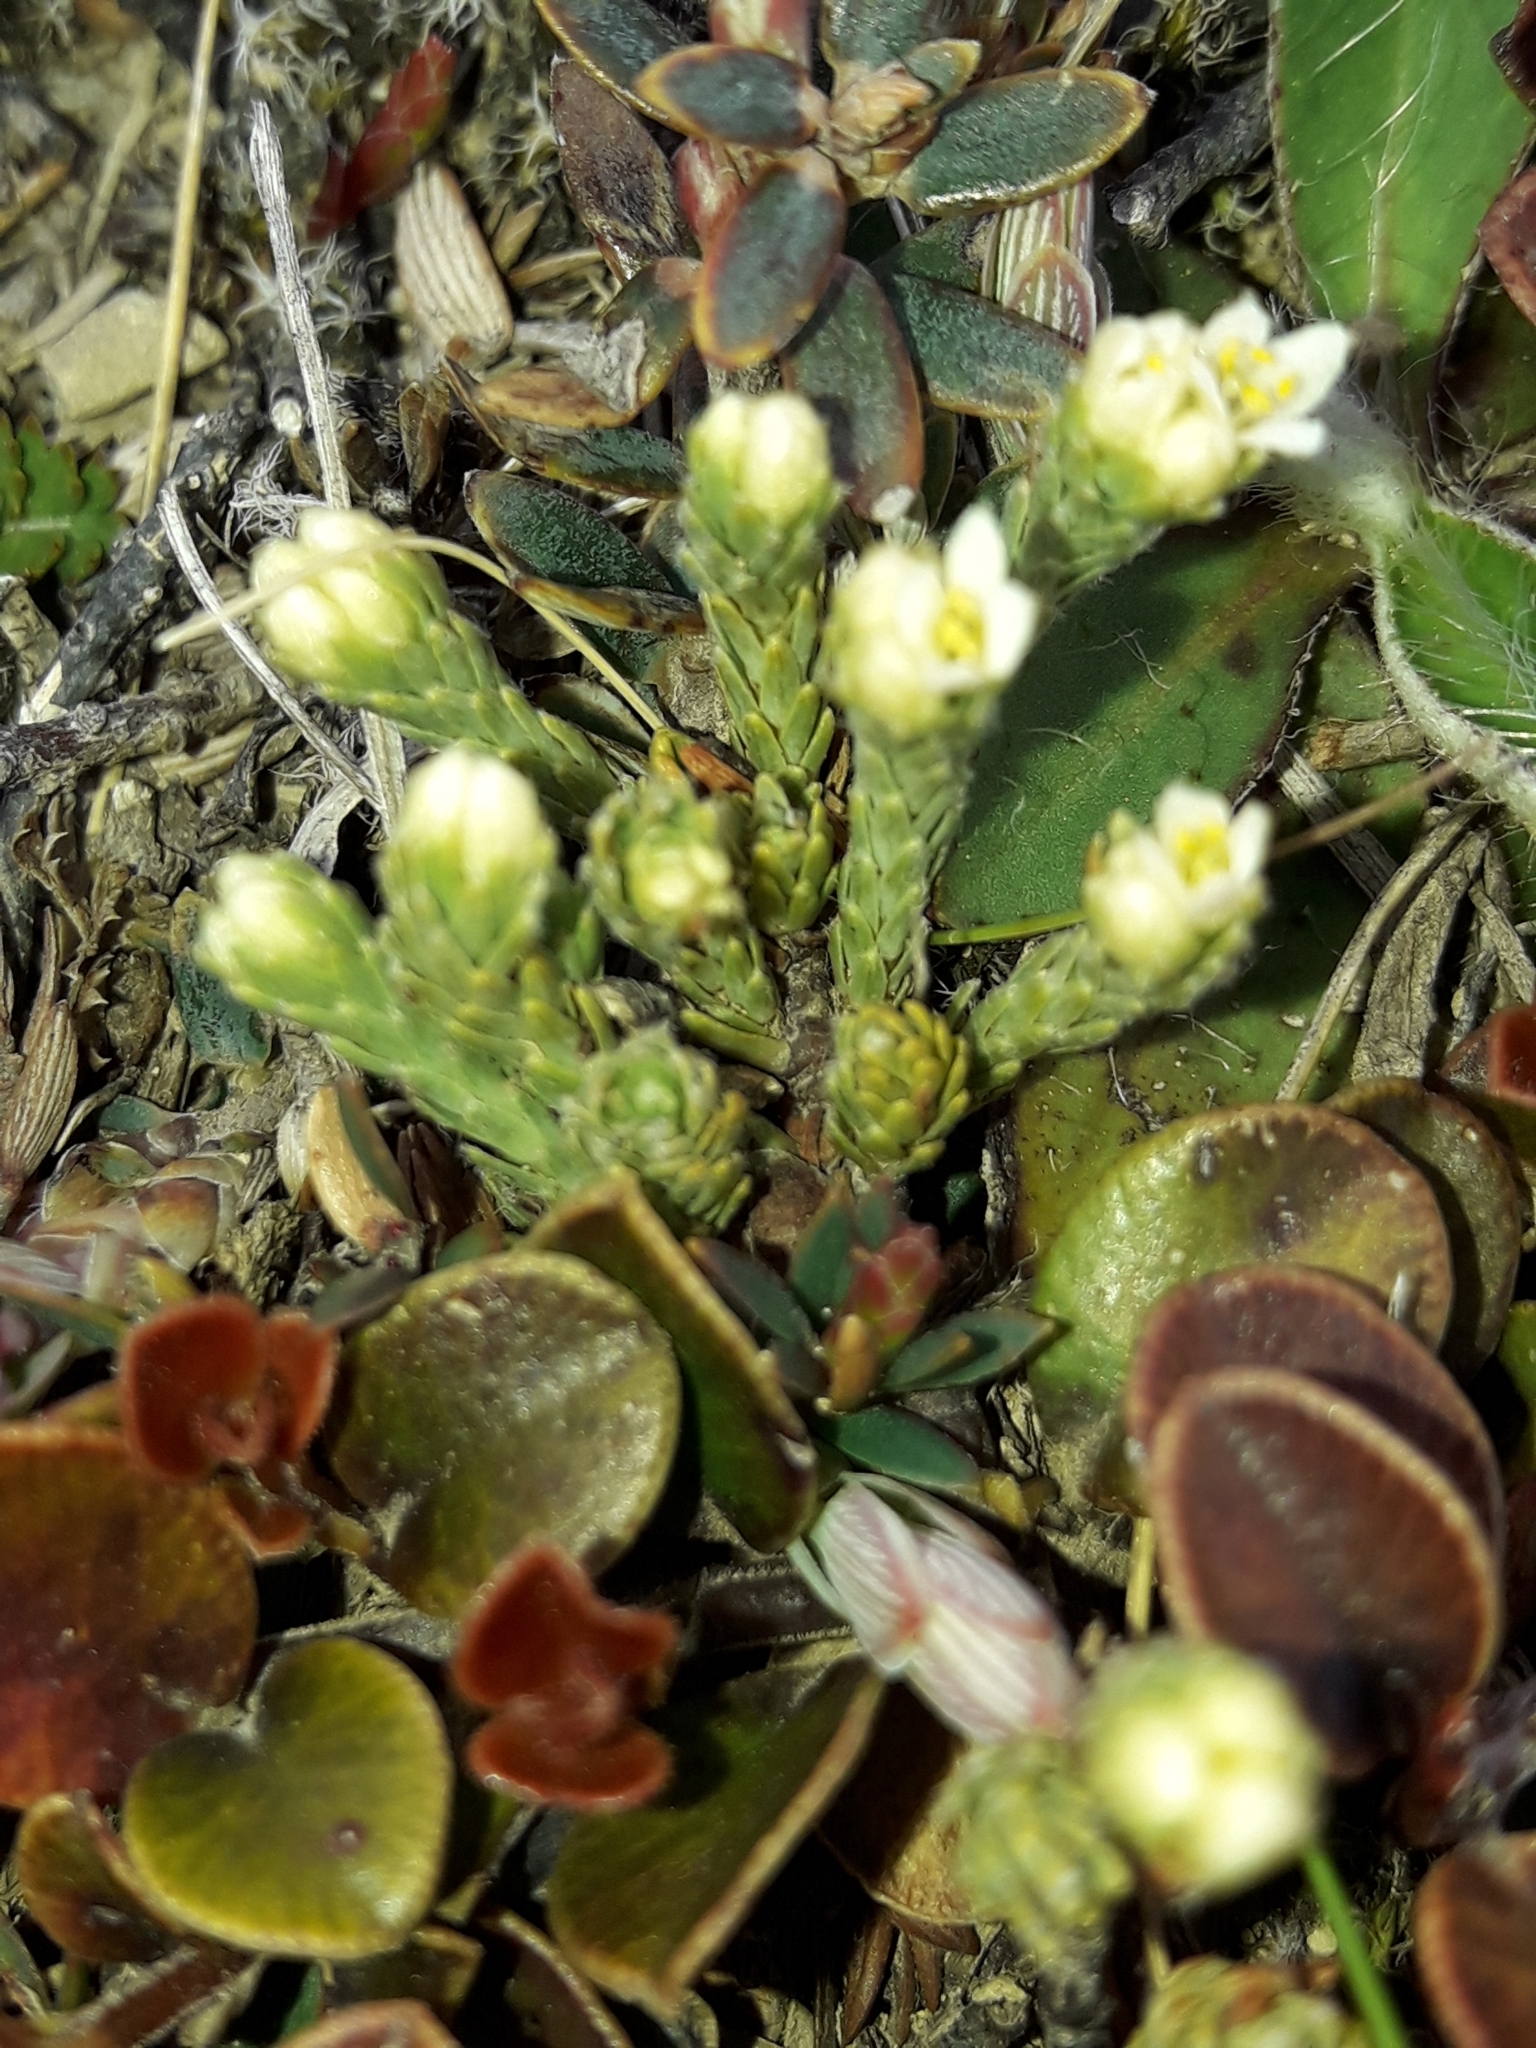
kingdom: Plantae
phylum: Tracheophyta
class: Magnoliopsida
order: Malvales
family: Thymelaeaceae
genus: Kelleria
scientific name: Kelleria dieffenbachii
